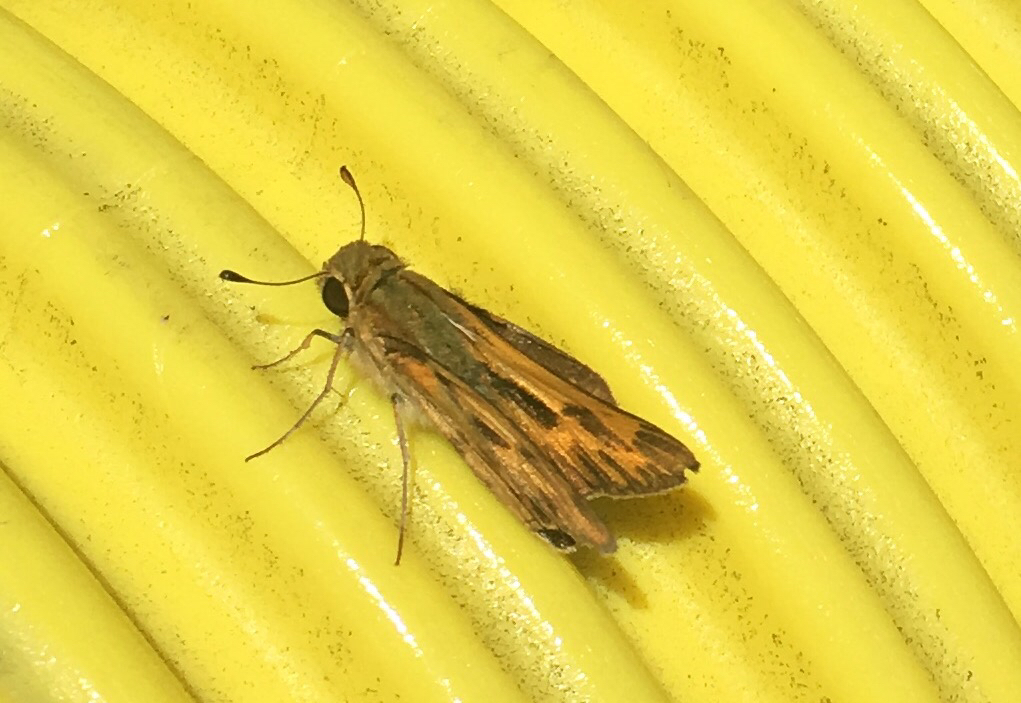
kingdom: Animalia
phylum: Arthropoda
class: Insecta
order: Lepidoptera
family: Hesperiidae
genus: Hylephila
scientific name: Hylephila phyleus
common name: Fiery skipper
